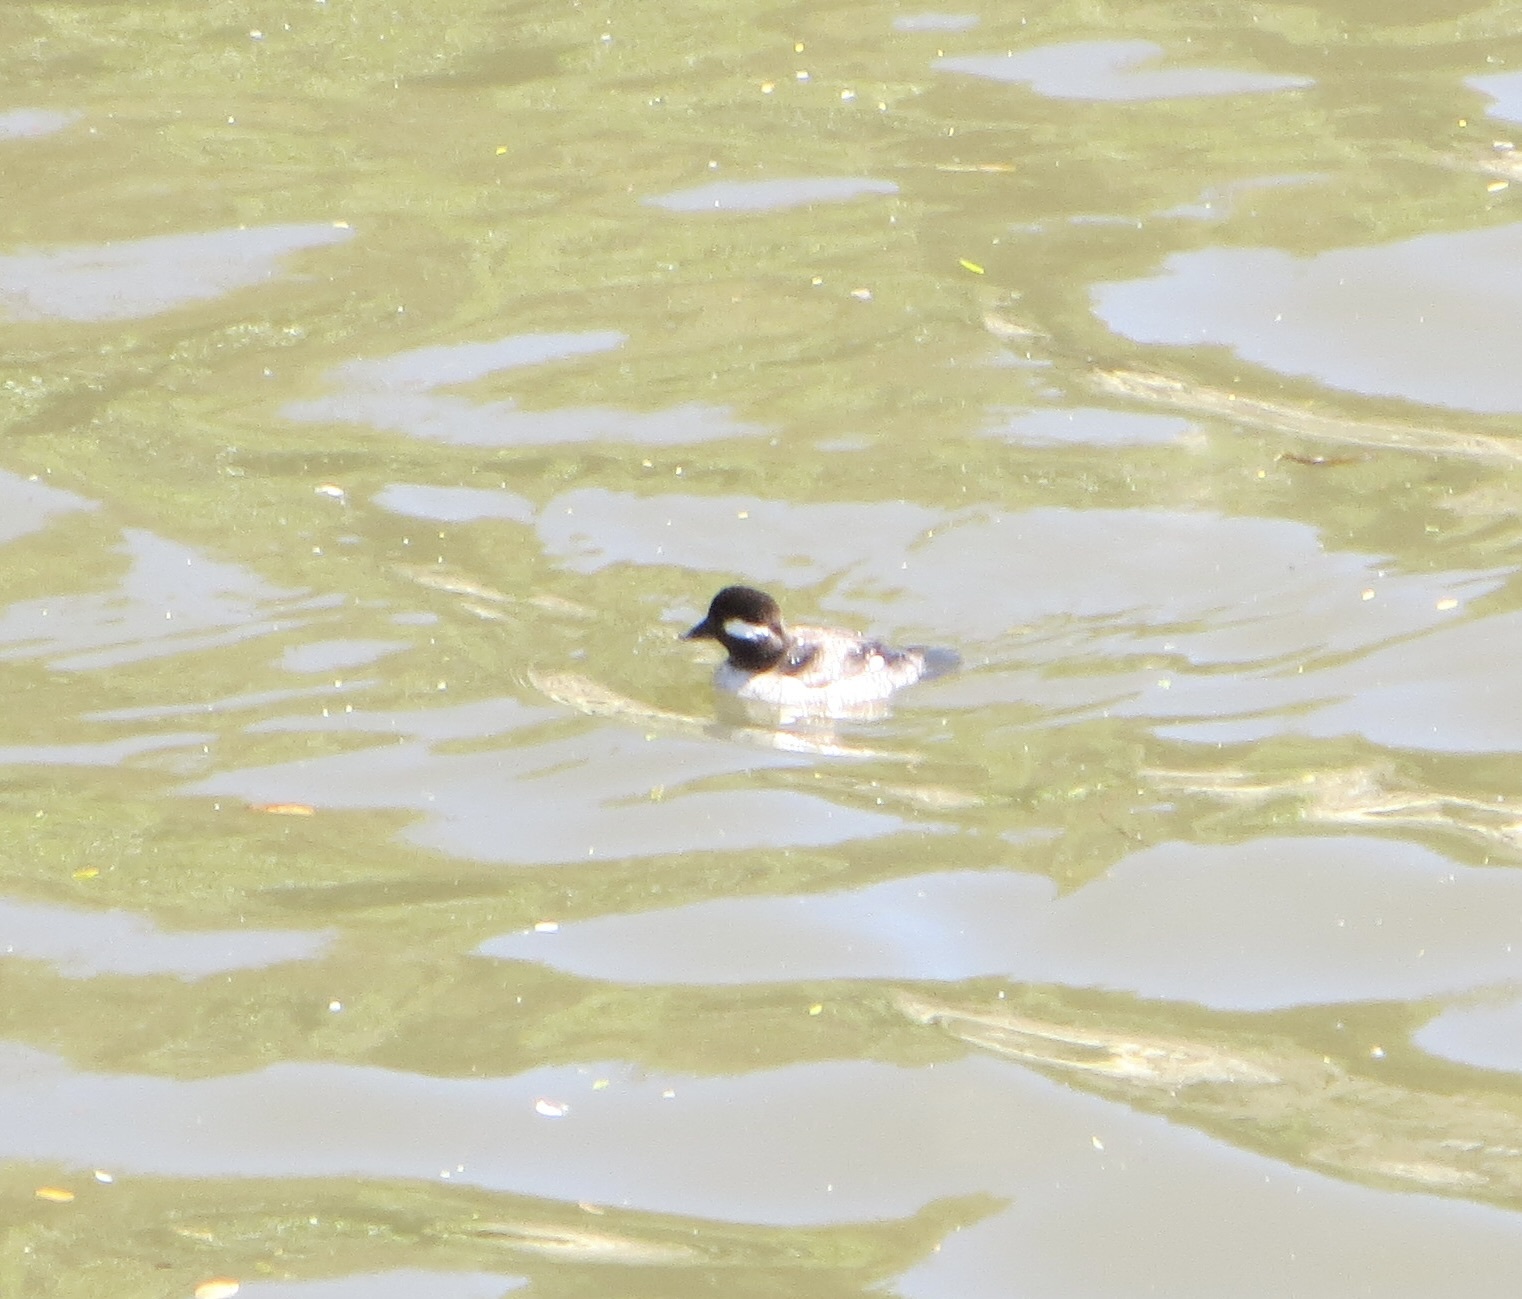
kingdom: Animalia
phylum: Chordata
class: Aves
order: Anseriformes
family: Anatidae
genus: Bucephala
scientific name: Bucephala albeola
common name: Bufflehead
